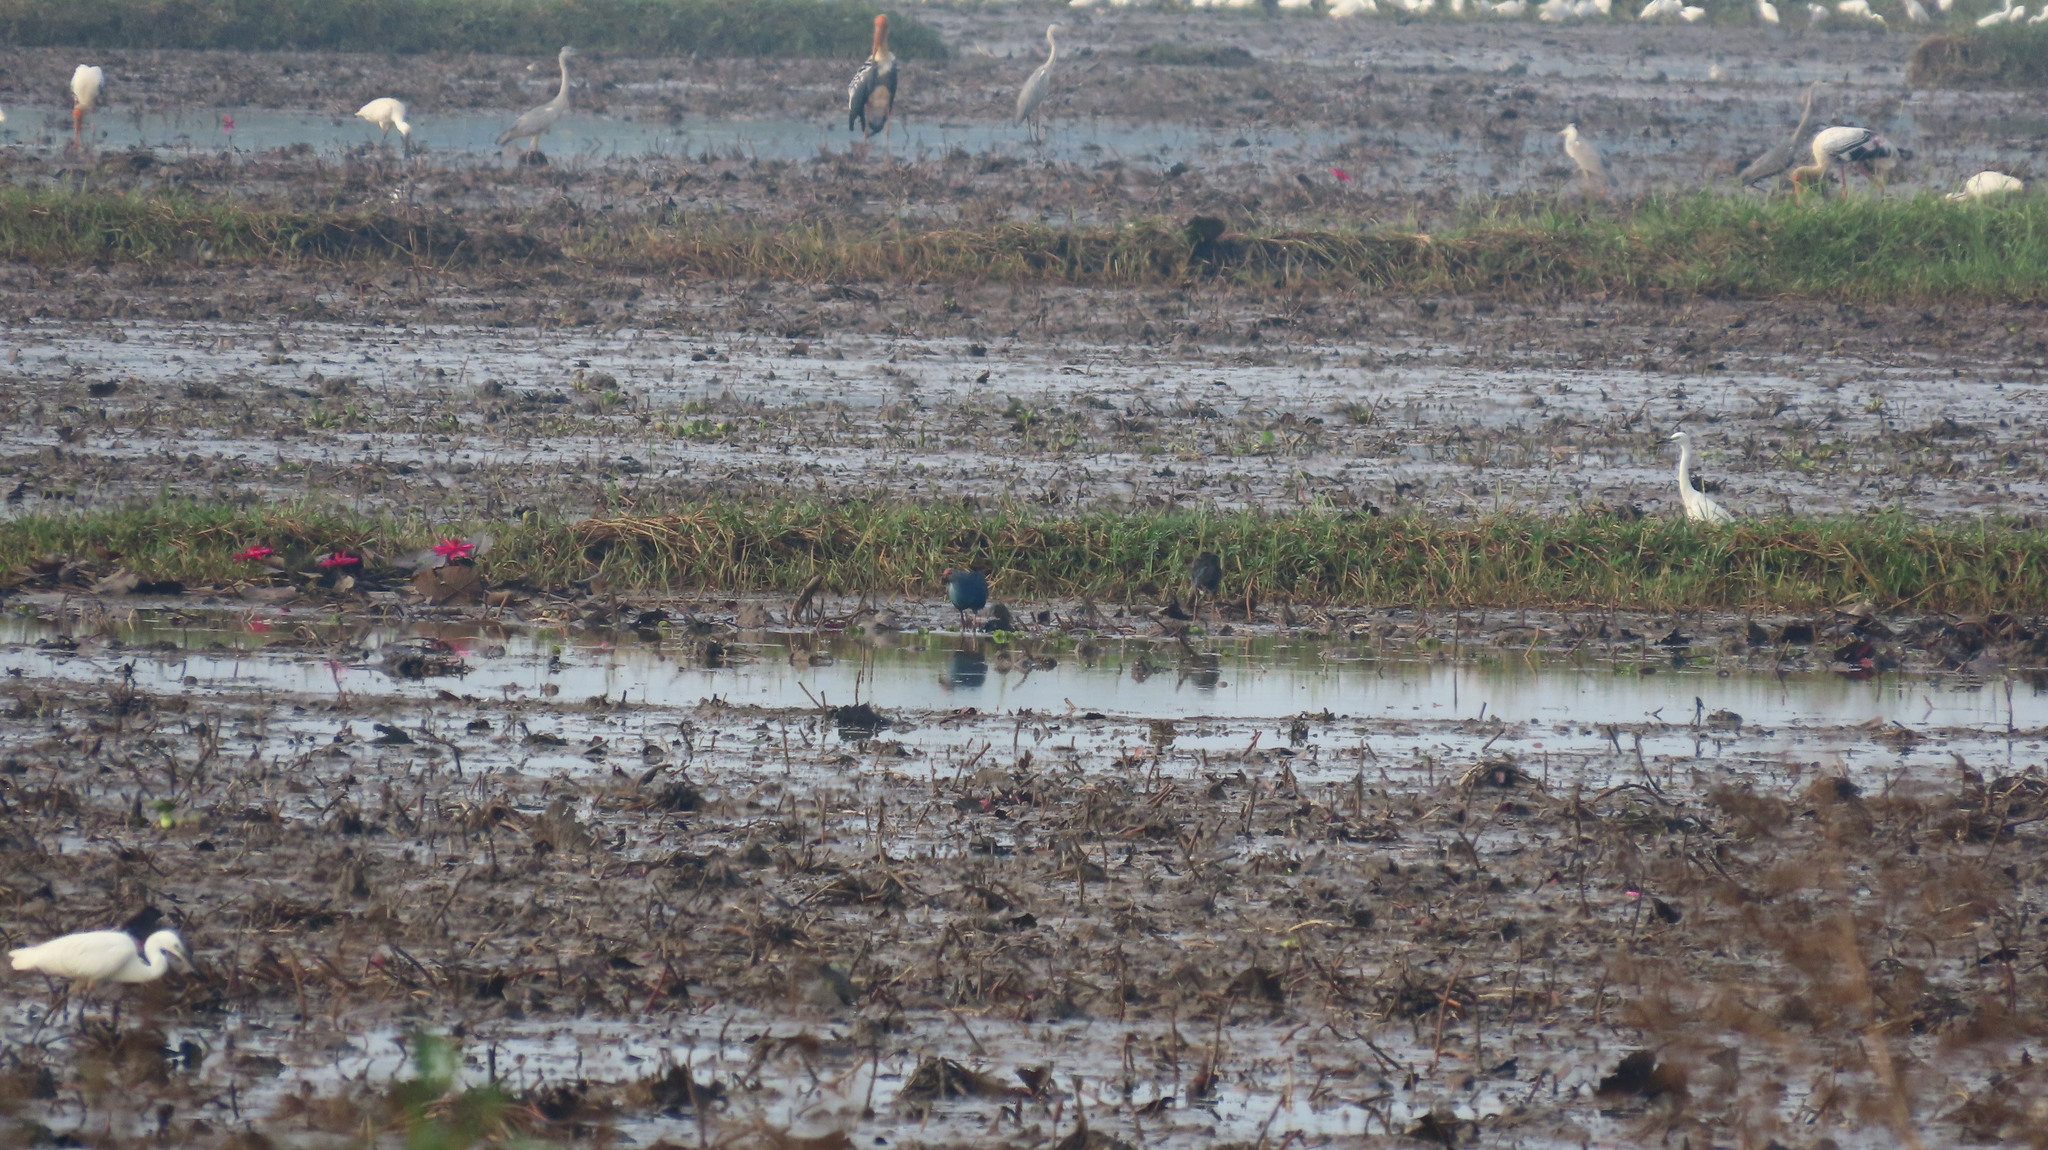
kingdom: Animalia
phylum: Chordata
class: Aves
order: Pelecaniformes
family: Ardeidae
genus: Ardea
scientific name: Ardea cinerea
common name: Grey heron
